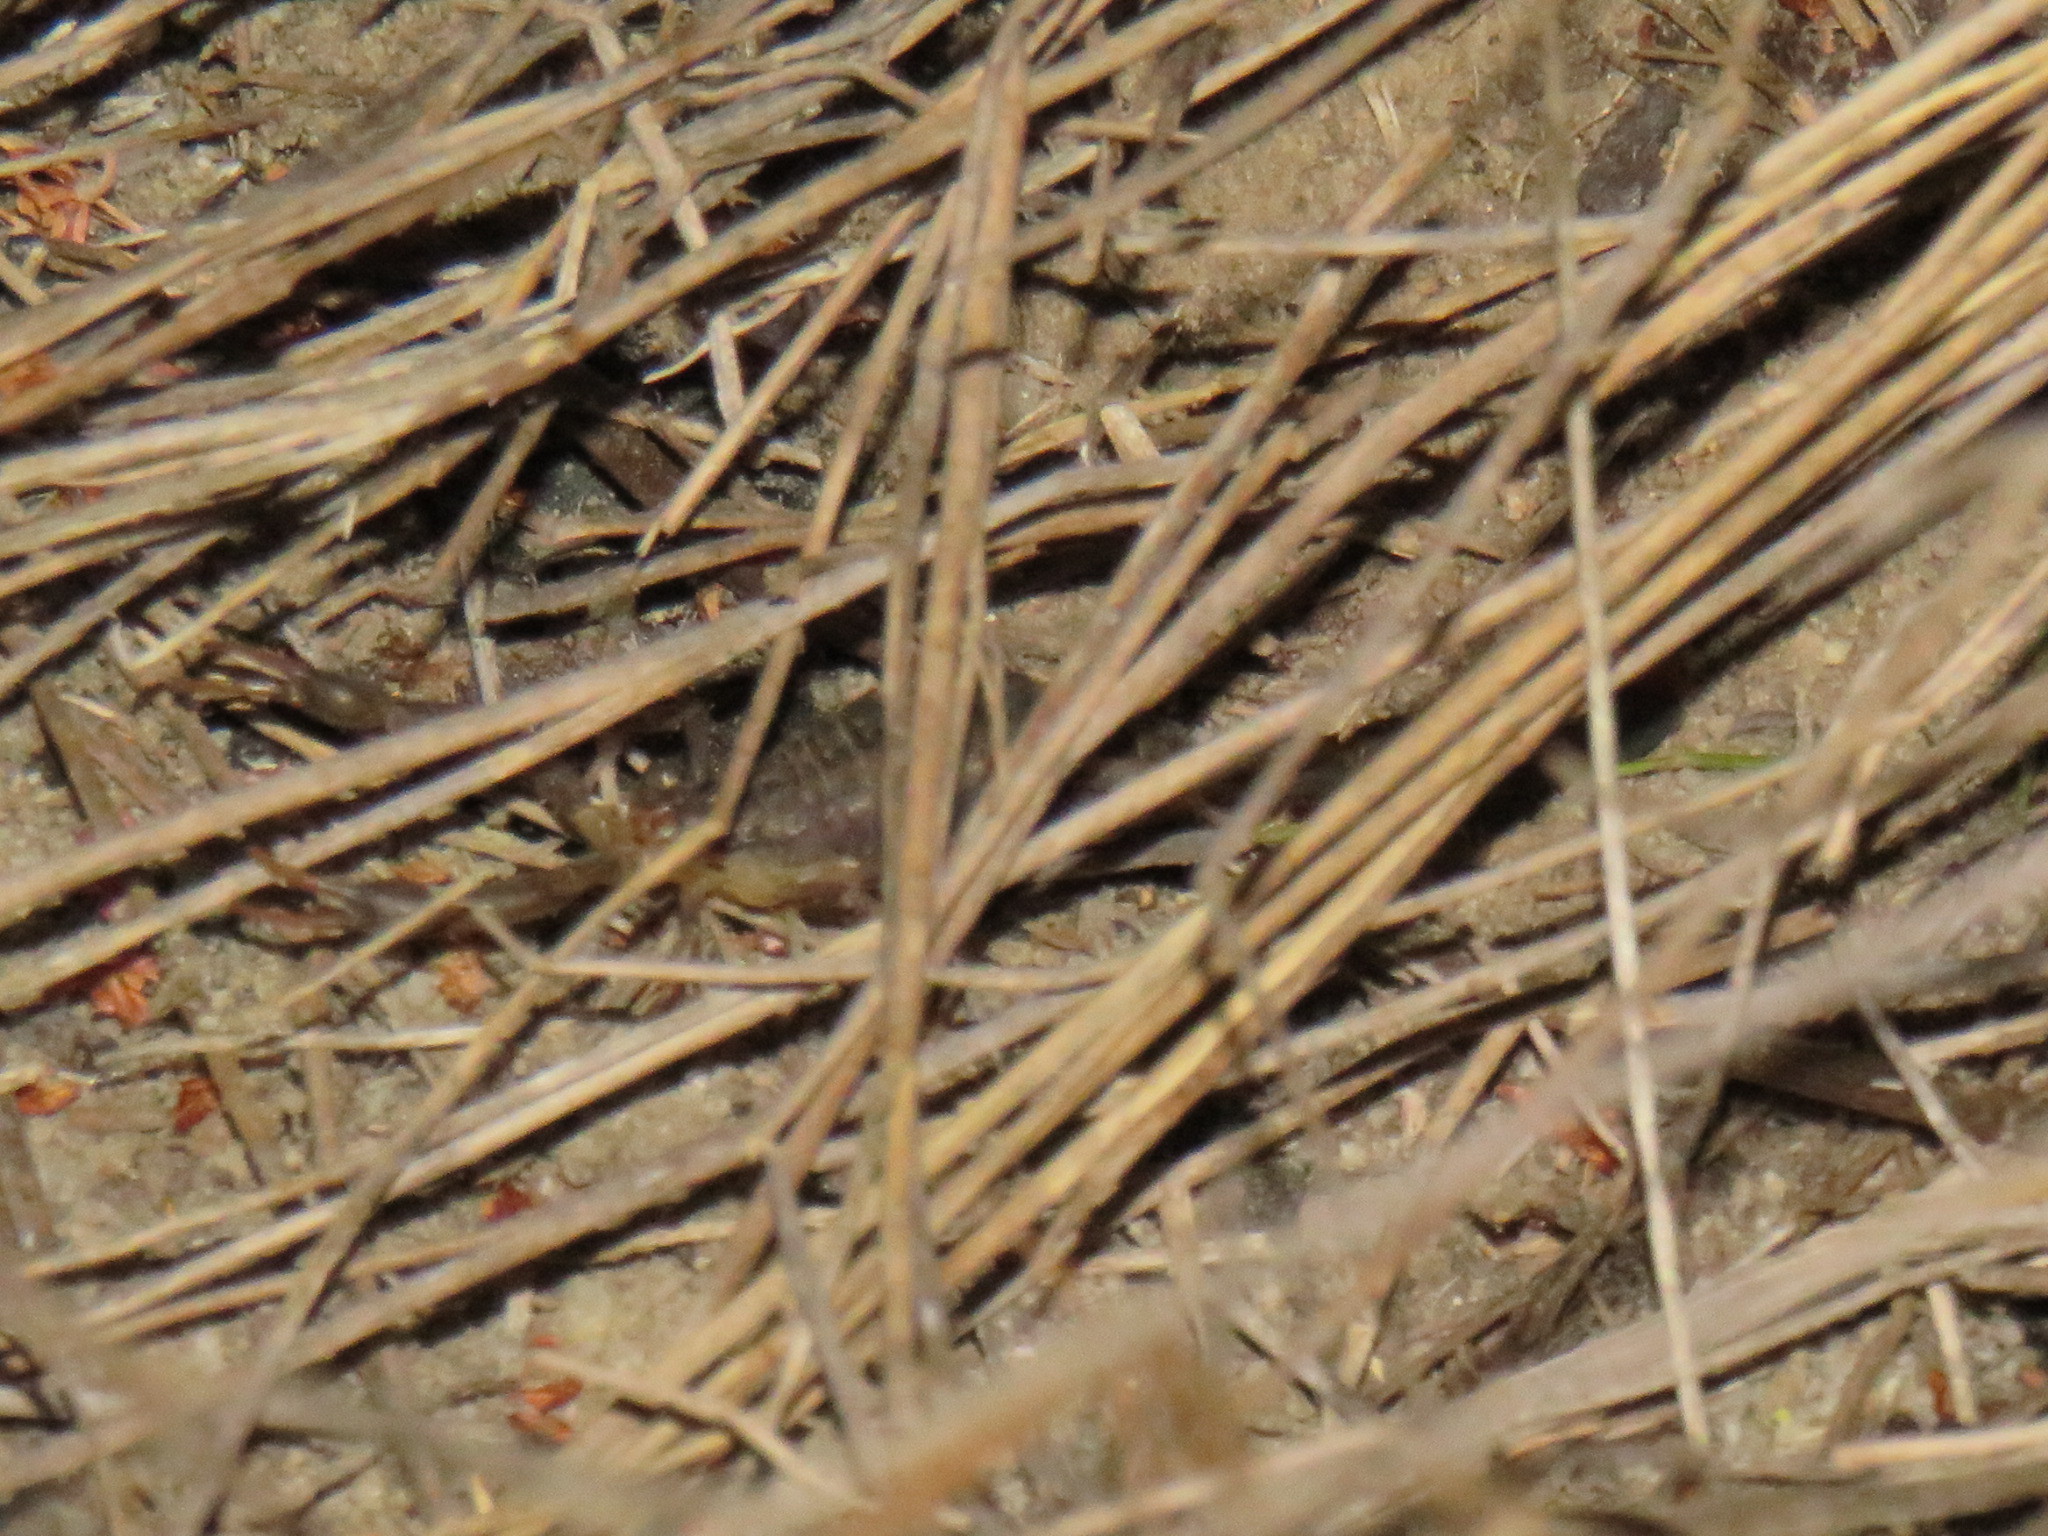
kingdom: Animalia
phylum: Arthropoda
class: Arachnida
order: Scorpiones
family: Buthidae
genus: Uroplectes
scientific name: Uroplectes lineatus
